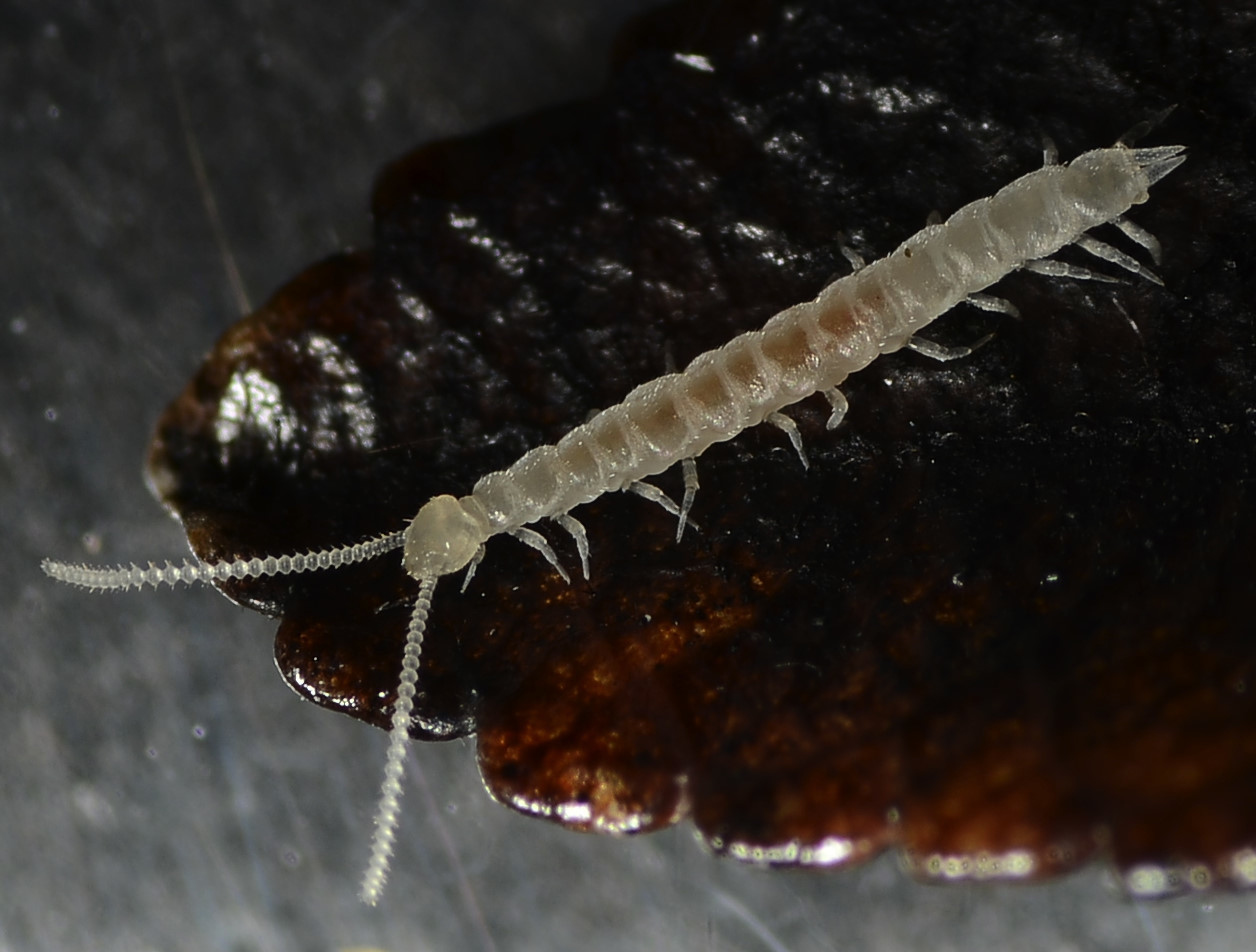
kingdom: Animalia
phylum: Arthropoda
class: Symphyla
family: Scutigerellidae
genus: Scutigerella
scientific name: Scutigerella
